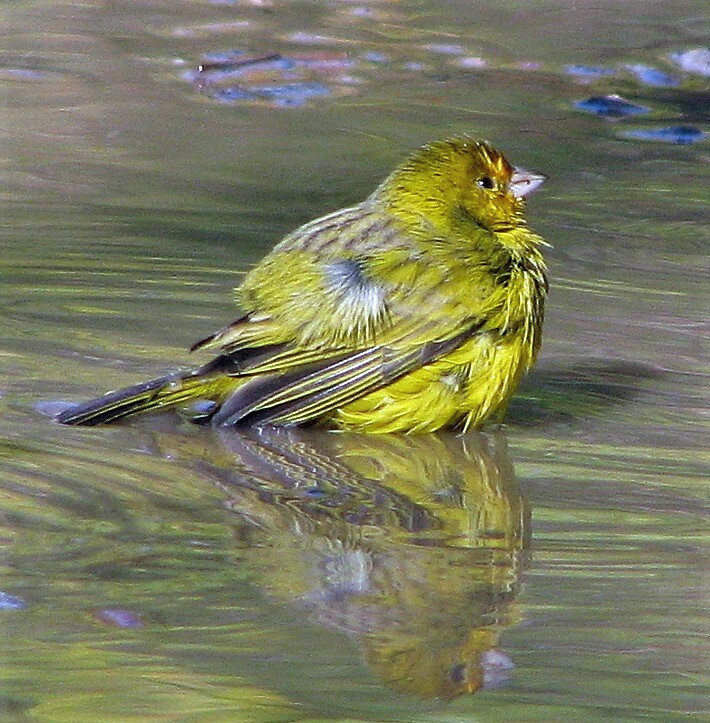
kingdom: Animalia
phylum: Chordata
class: Aves
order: Passeriformes
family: Thraupidae
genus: Sicalis
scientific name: Sicalis flaveola
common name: Saffron finch
